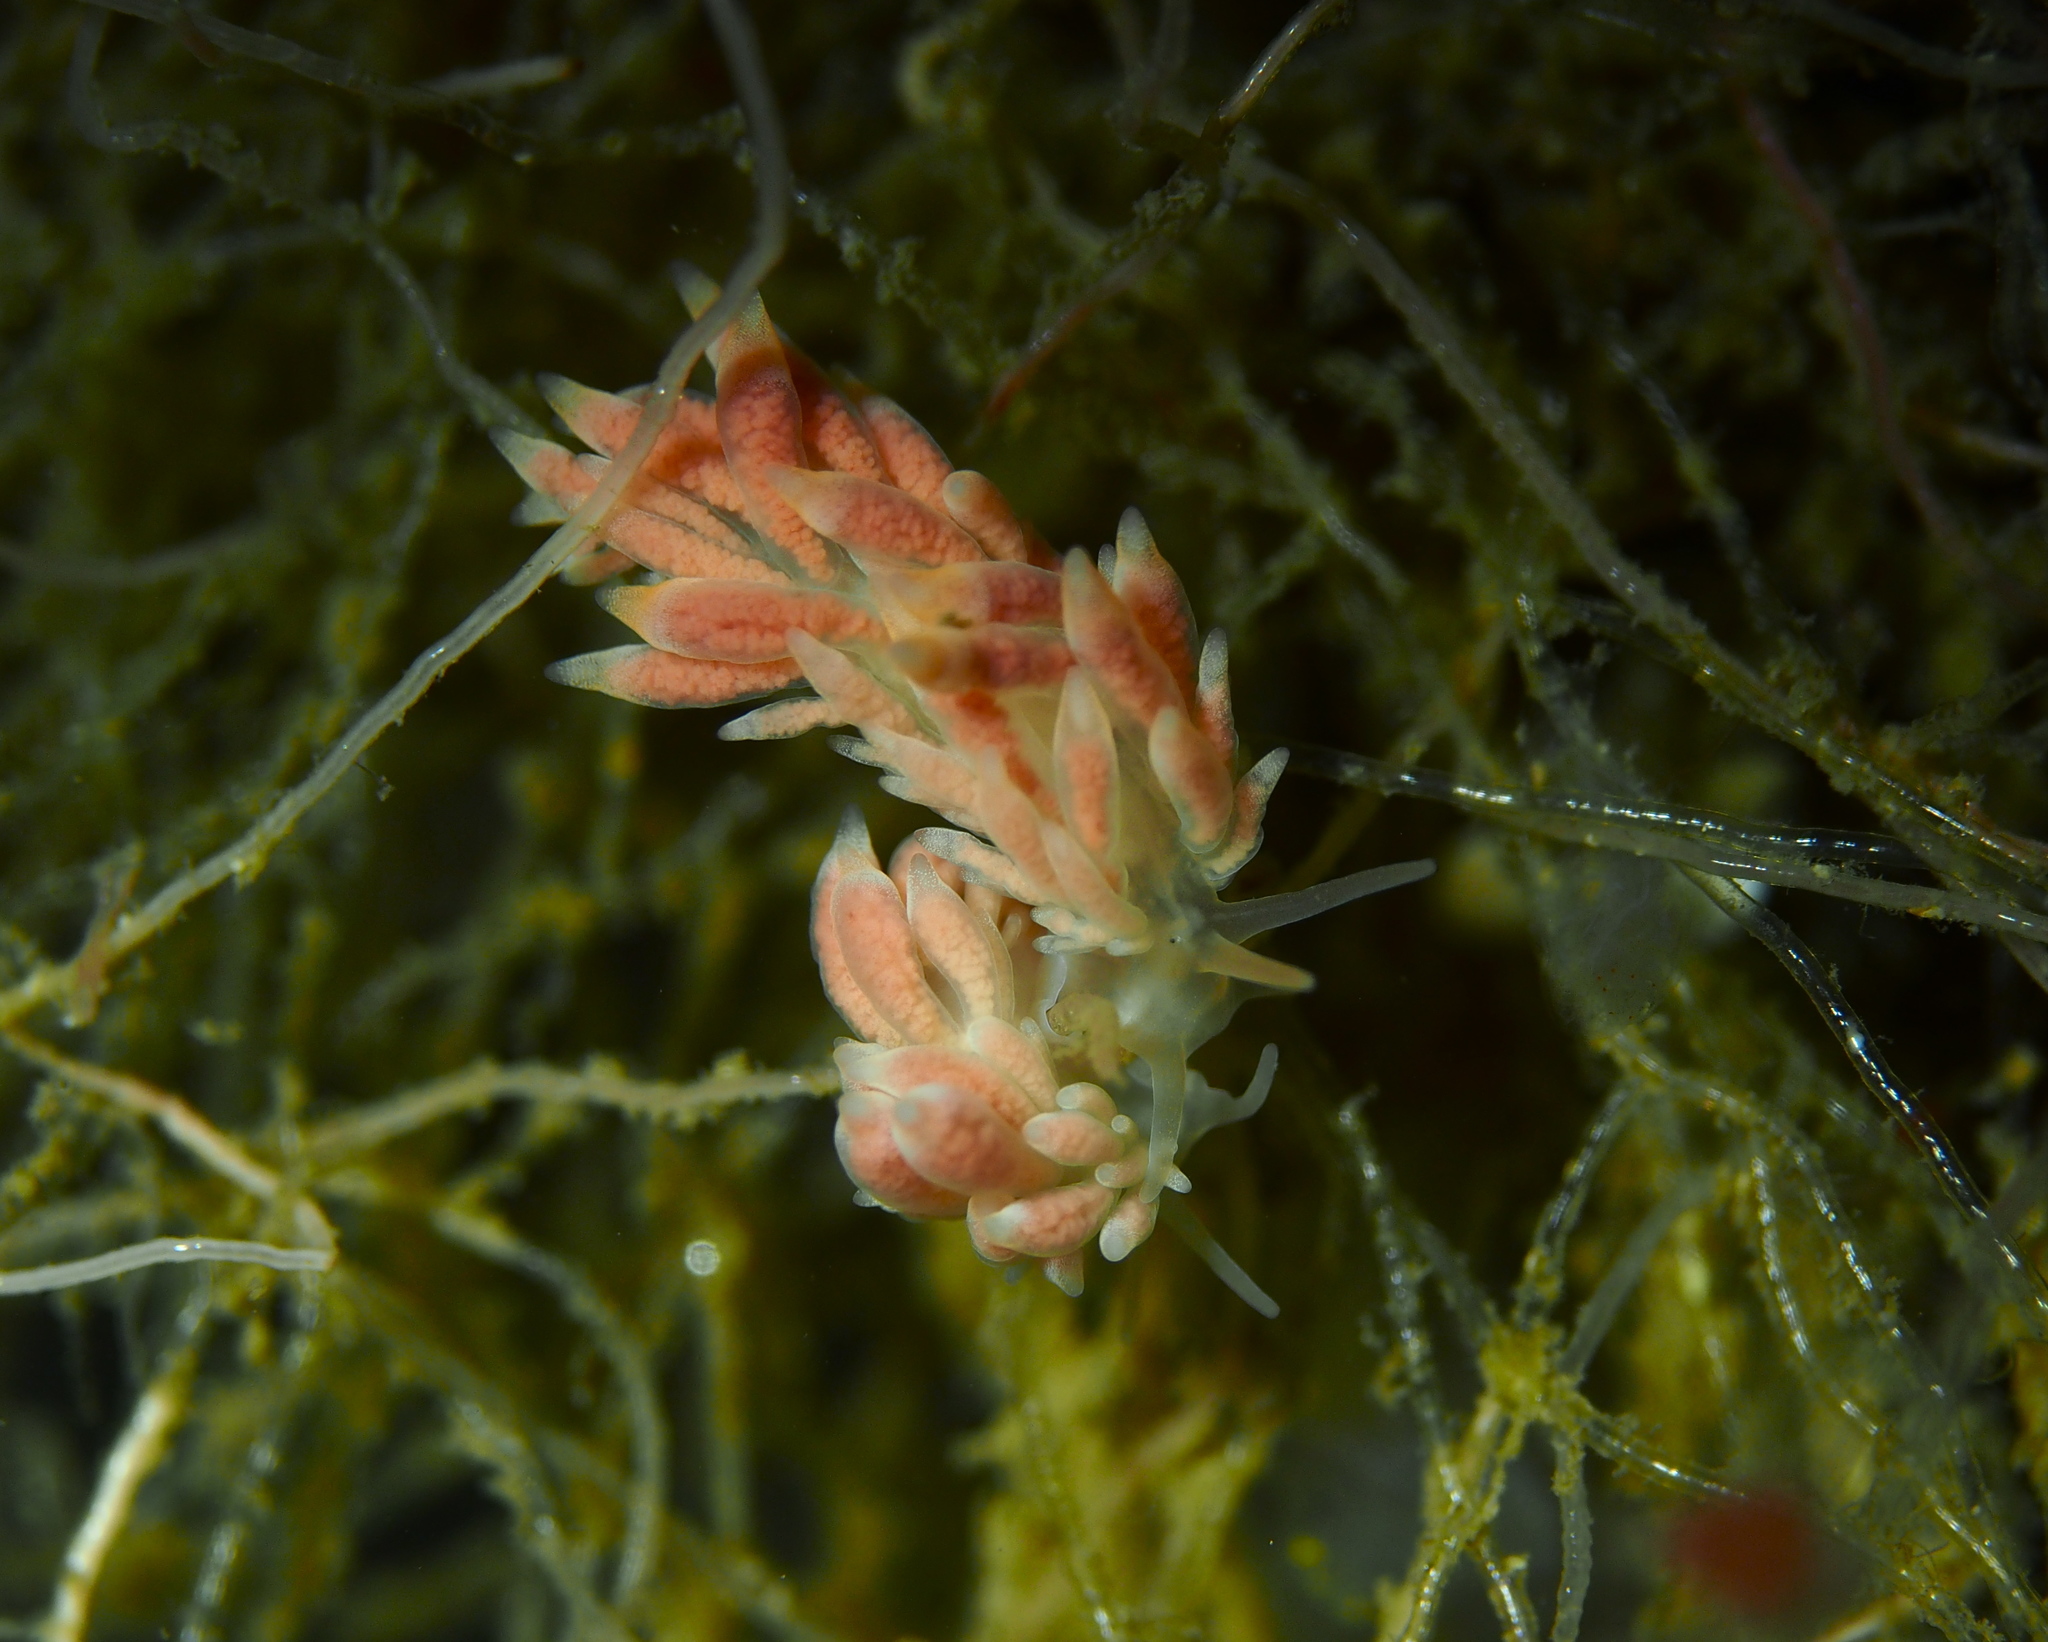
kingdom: Animalia
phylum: Mollusca
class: Gastropoda
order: Nudibranchia
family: Trinchesiidae
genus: Catriona
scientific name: Catriona aurantia
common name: Corange-tip cuthona
